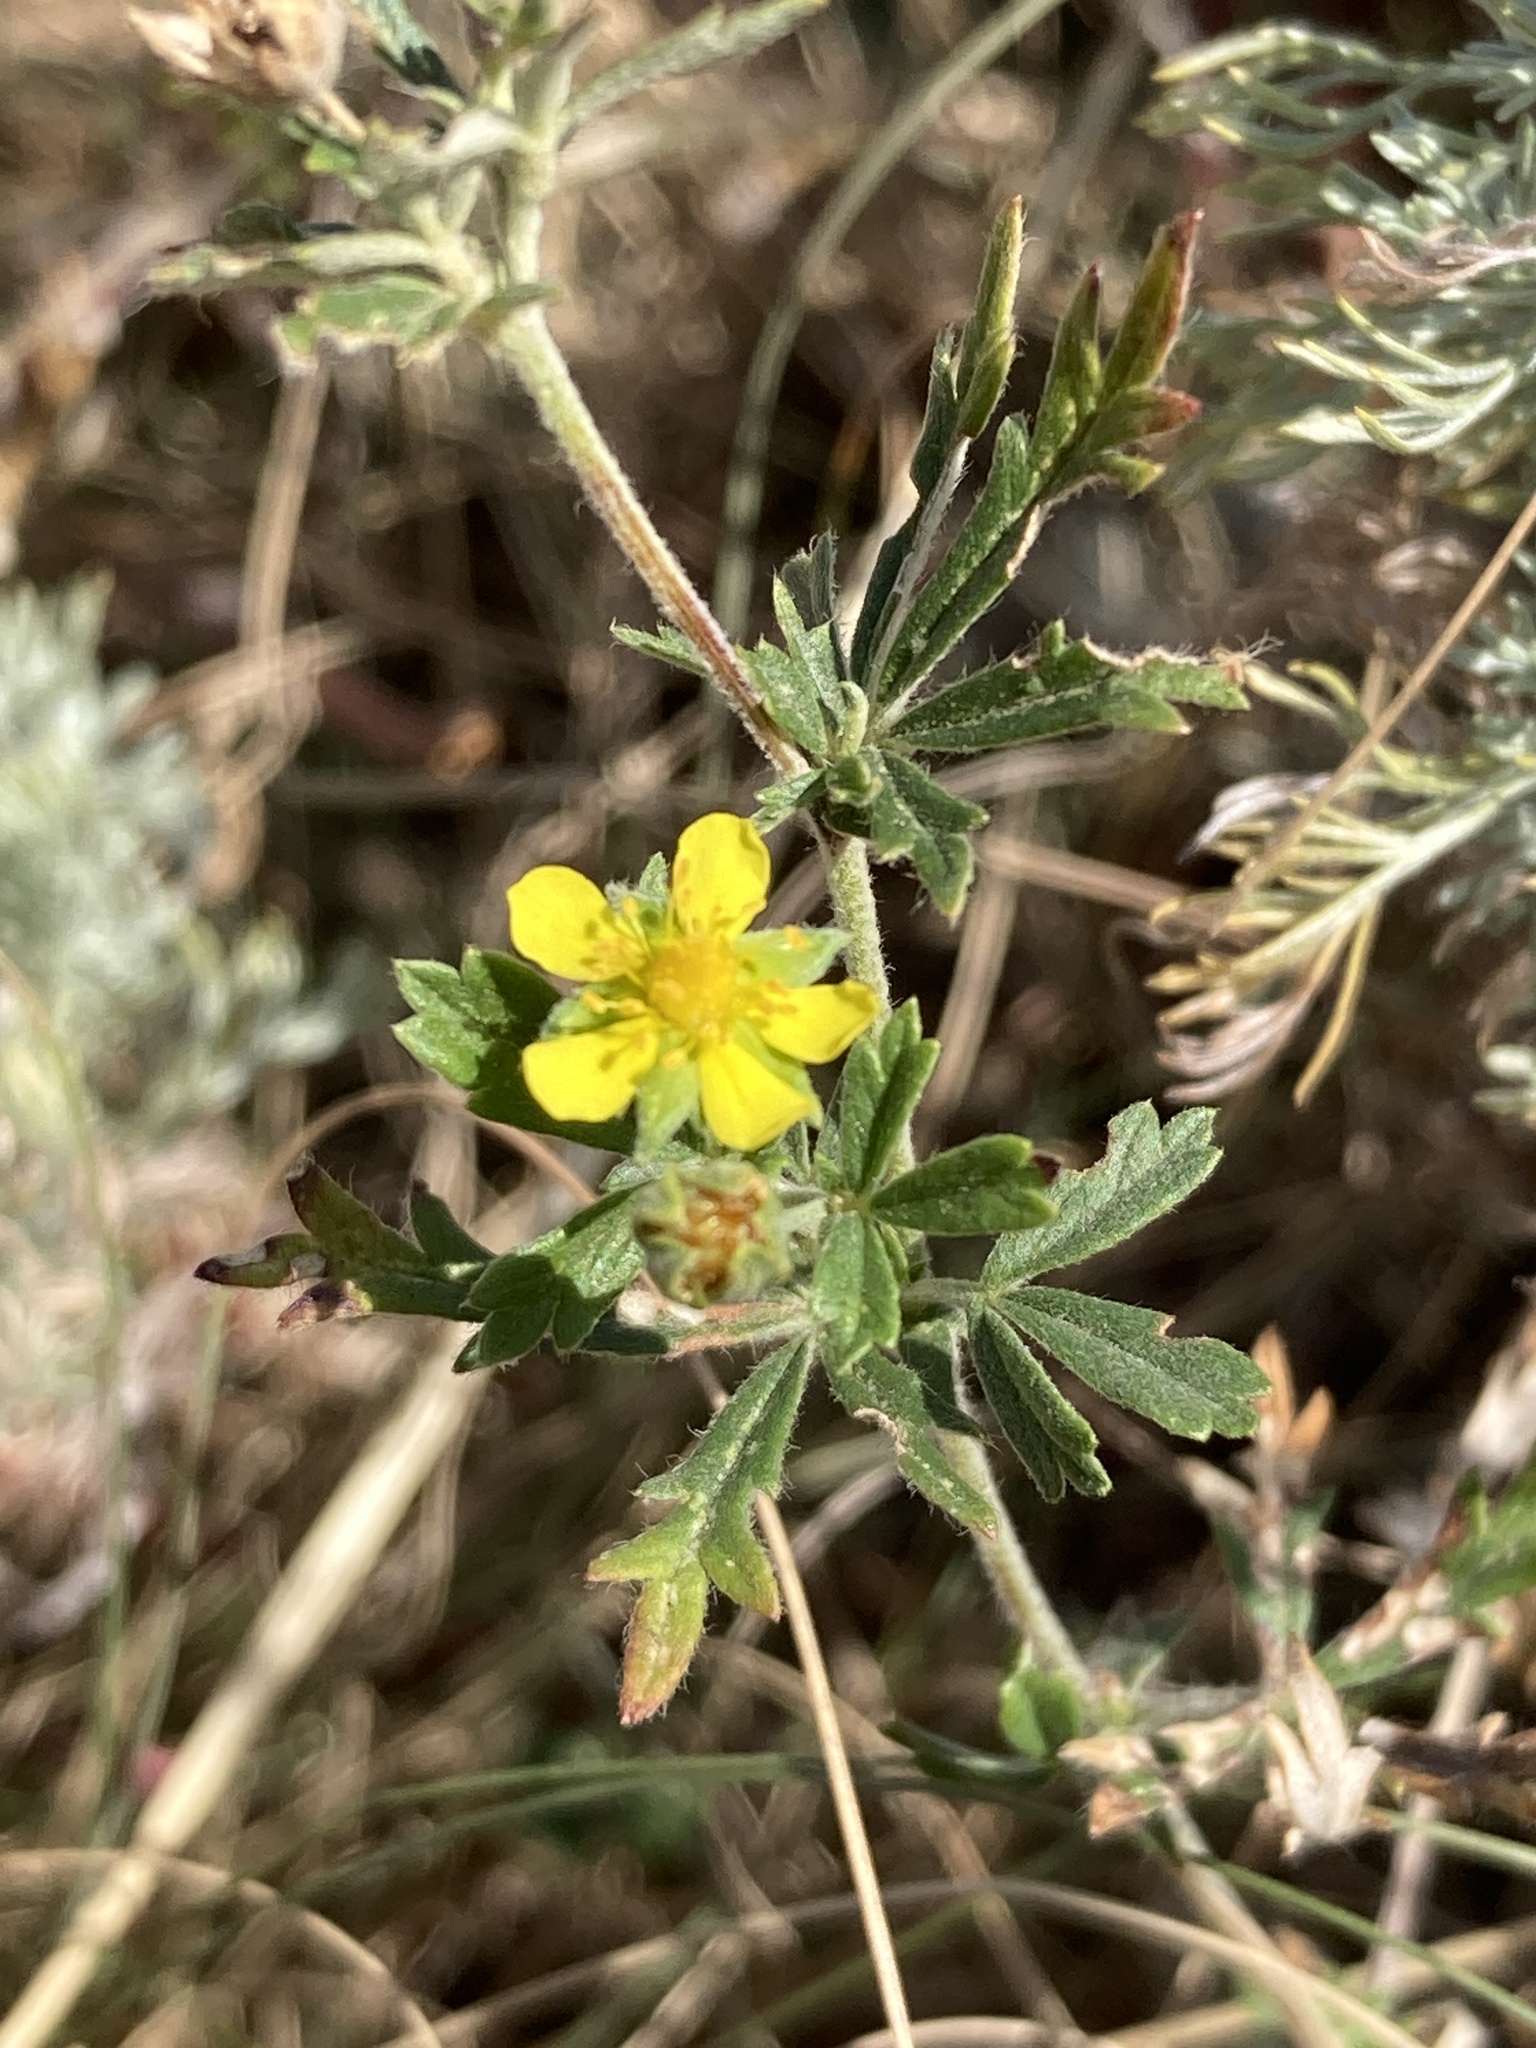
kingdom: Plantae
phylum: Tracheophyta
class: Magnoliopsida
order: Rosales
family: Rosaceae
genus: Potentilla
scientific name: Potentilla argentea
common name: Hoary cinquefoil
